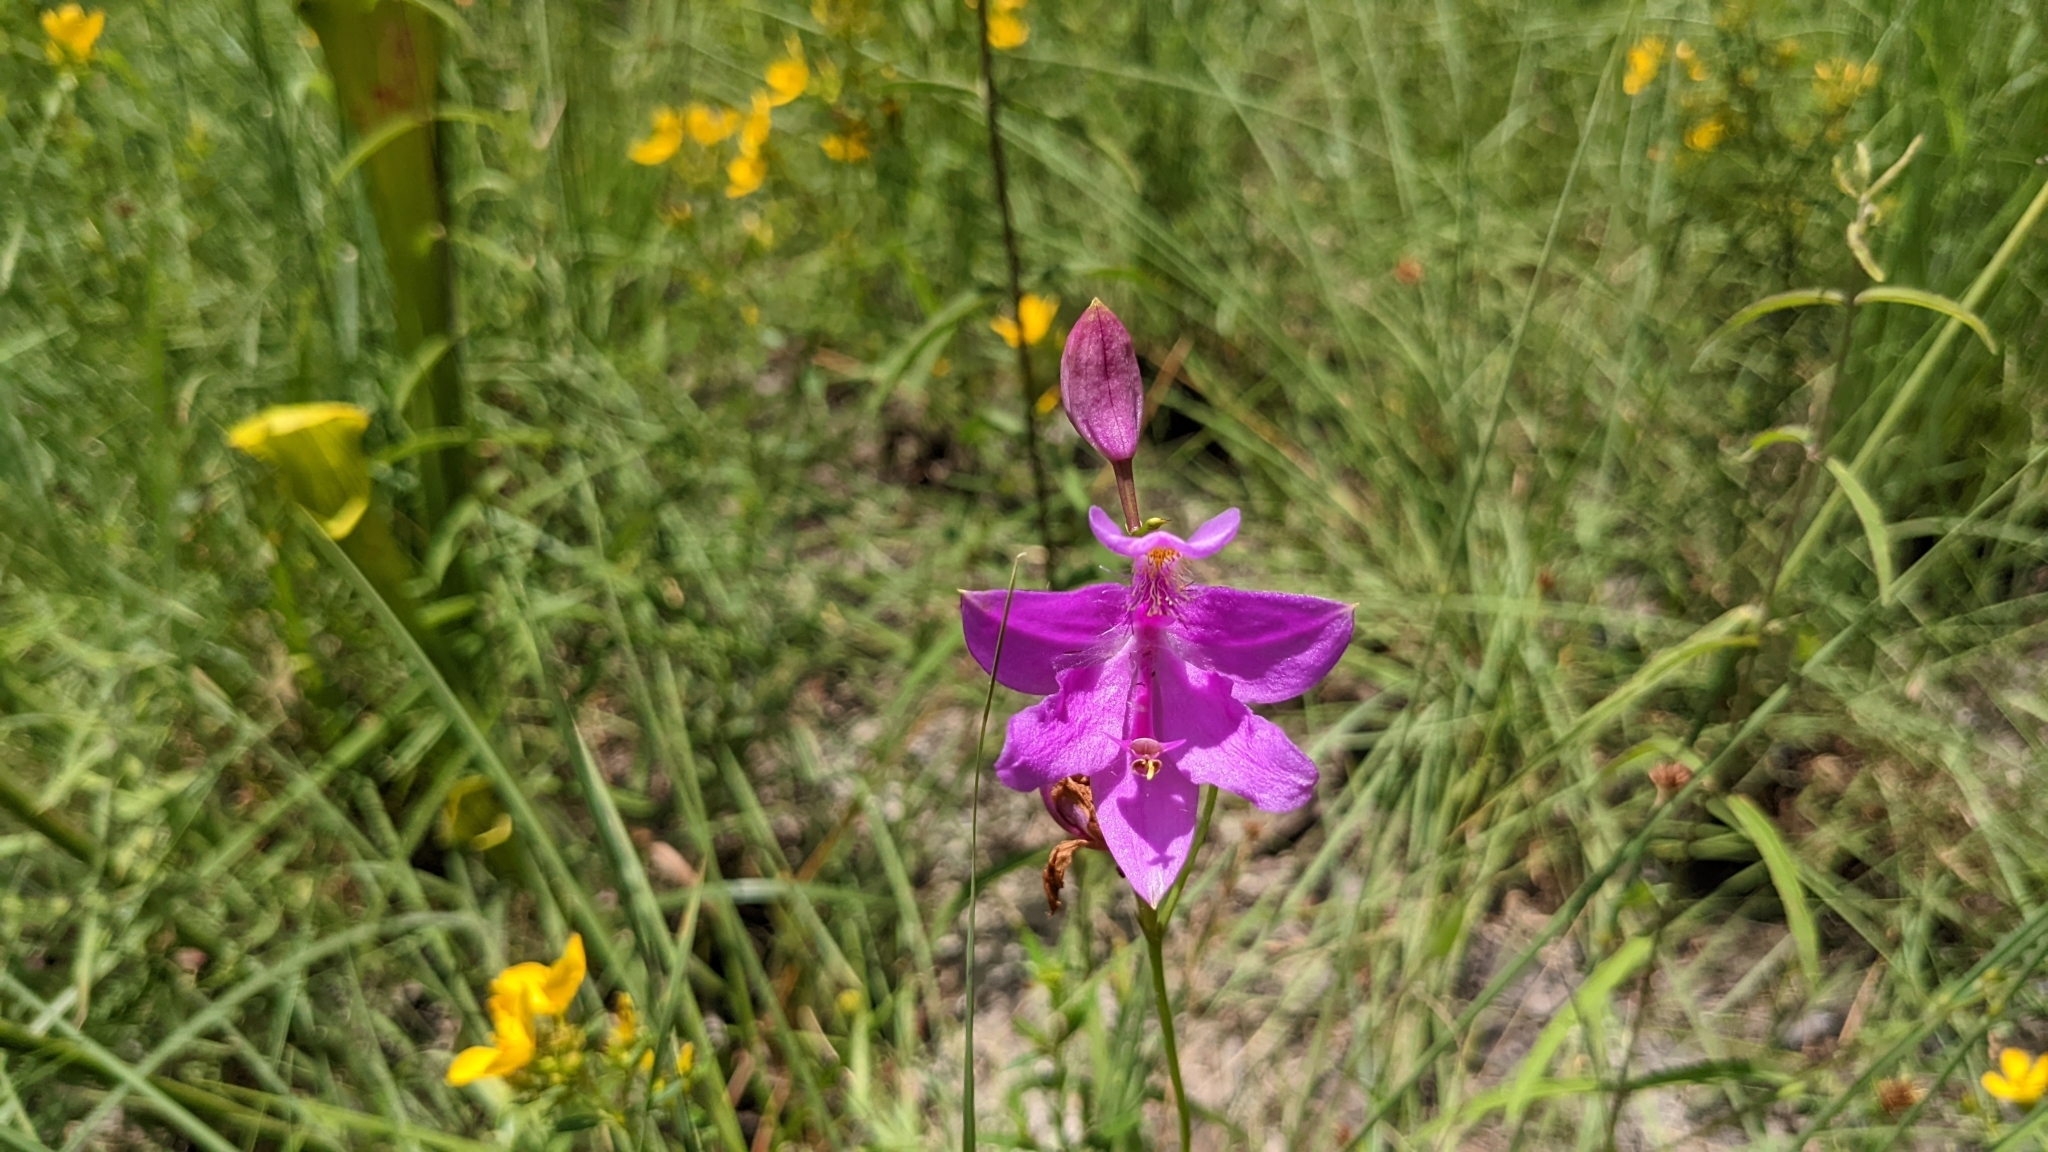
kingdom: Plantae
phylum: Tracheophyta
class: Liliopsida
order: Asparagales
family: Orchidaceae
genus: Calopogon
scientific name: Calopogon tuberosus
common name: Grass-pink
